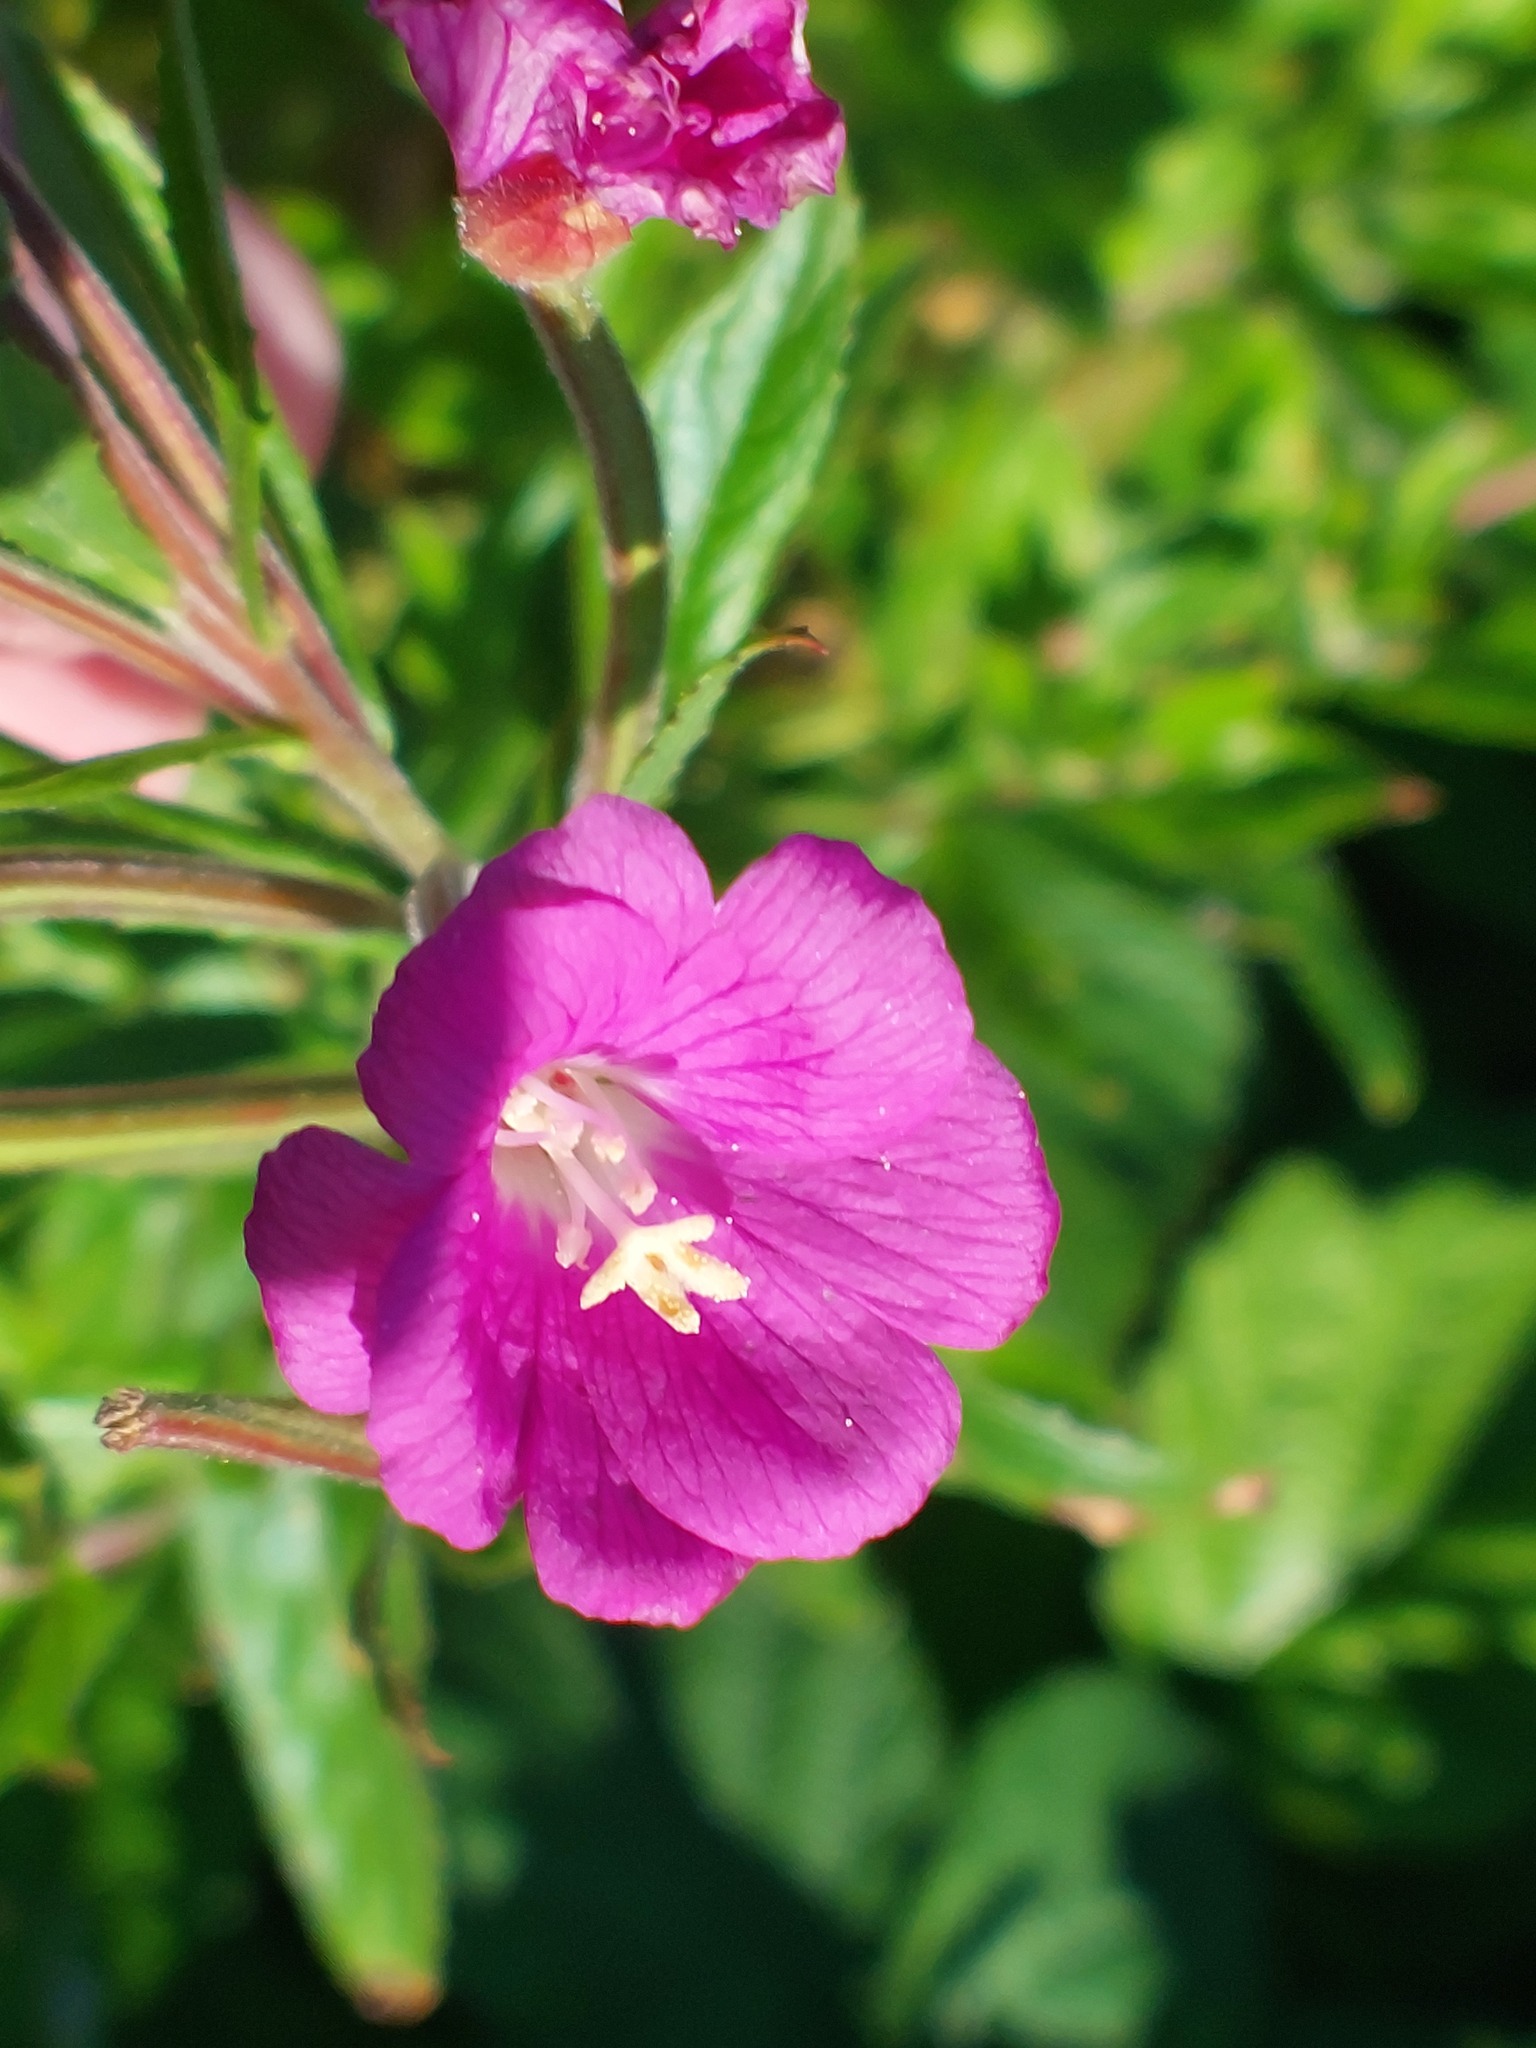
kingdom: Plantae
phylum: Tracheophyta
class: Magnoliopsida
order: Myrtales
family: Onagraceae
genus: Epilobium
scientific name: Epilobium hirsutum
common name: Great willowherb
